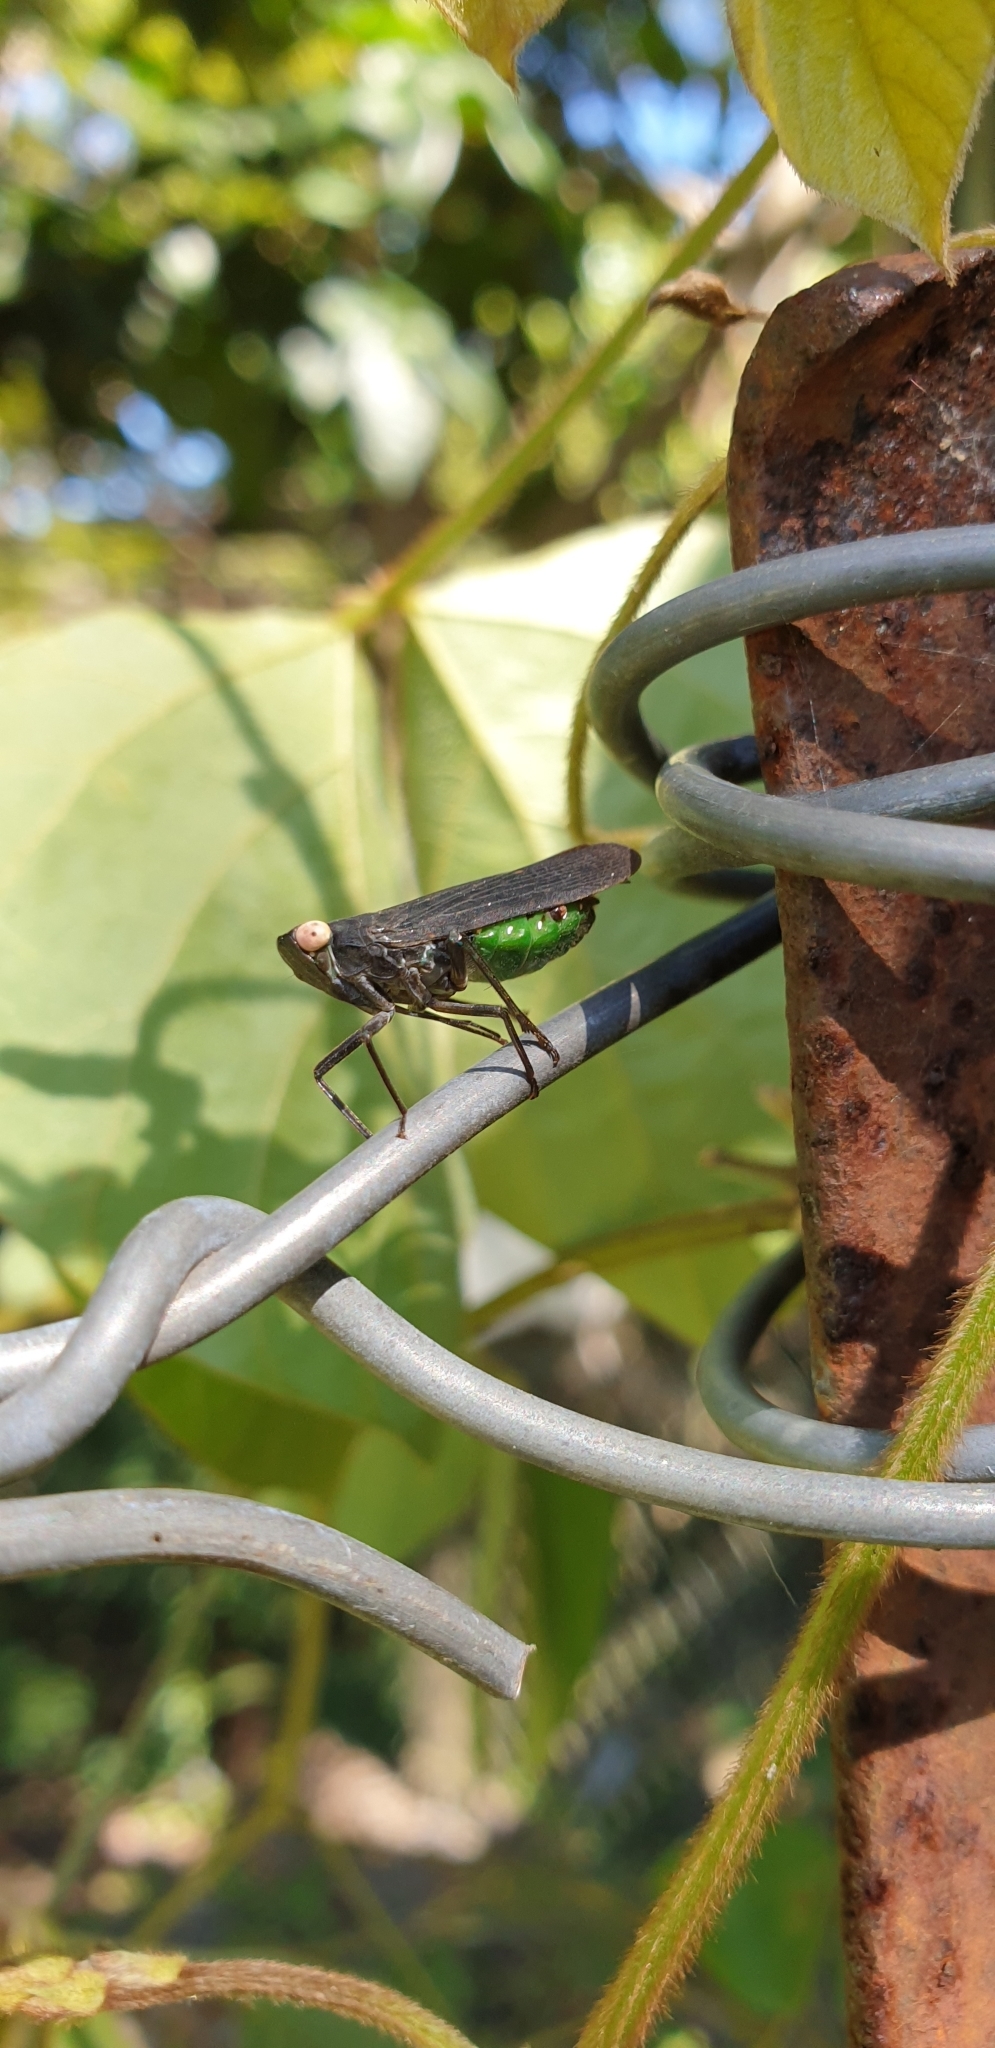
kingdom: Animalia
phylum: Arthropoda
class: Insecta
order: Hemiptera
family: Fulgoridae
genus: Desudaba
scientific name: Desudaba psittacus
